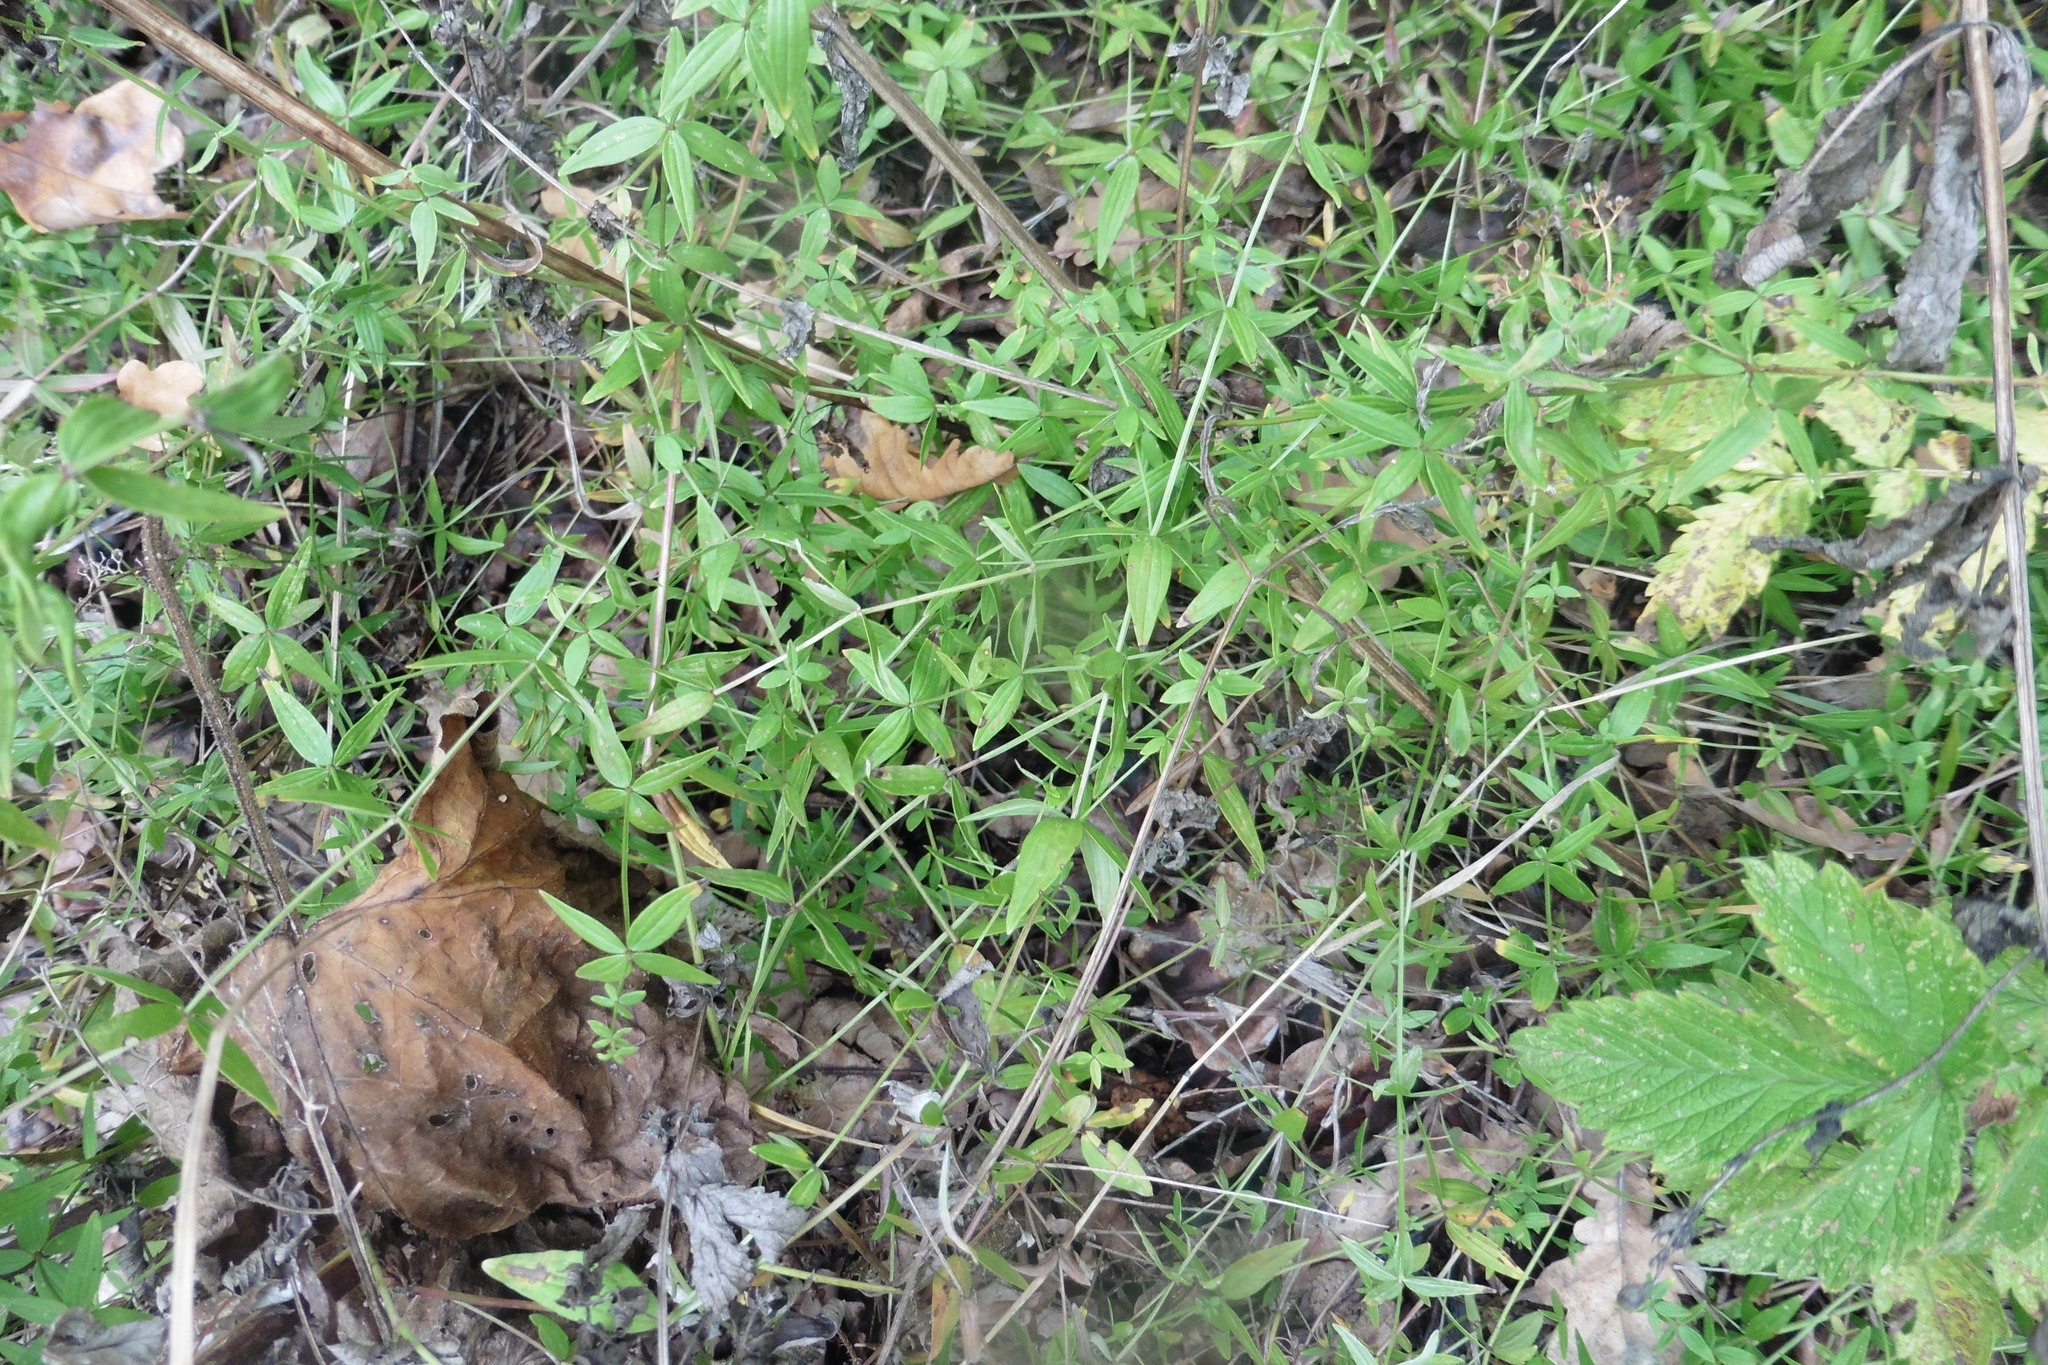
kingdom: Plantae
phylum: Tracheophyta
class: Magnoliopsida
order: Gentianales
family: Rubiaceae
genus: Galium
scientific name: Galium boreale
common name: Northern bedstraw
